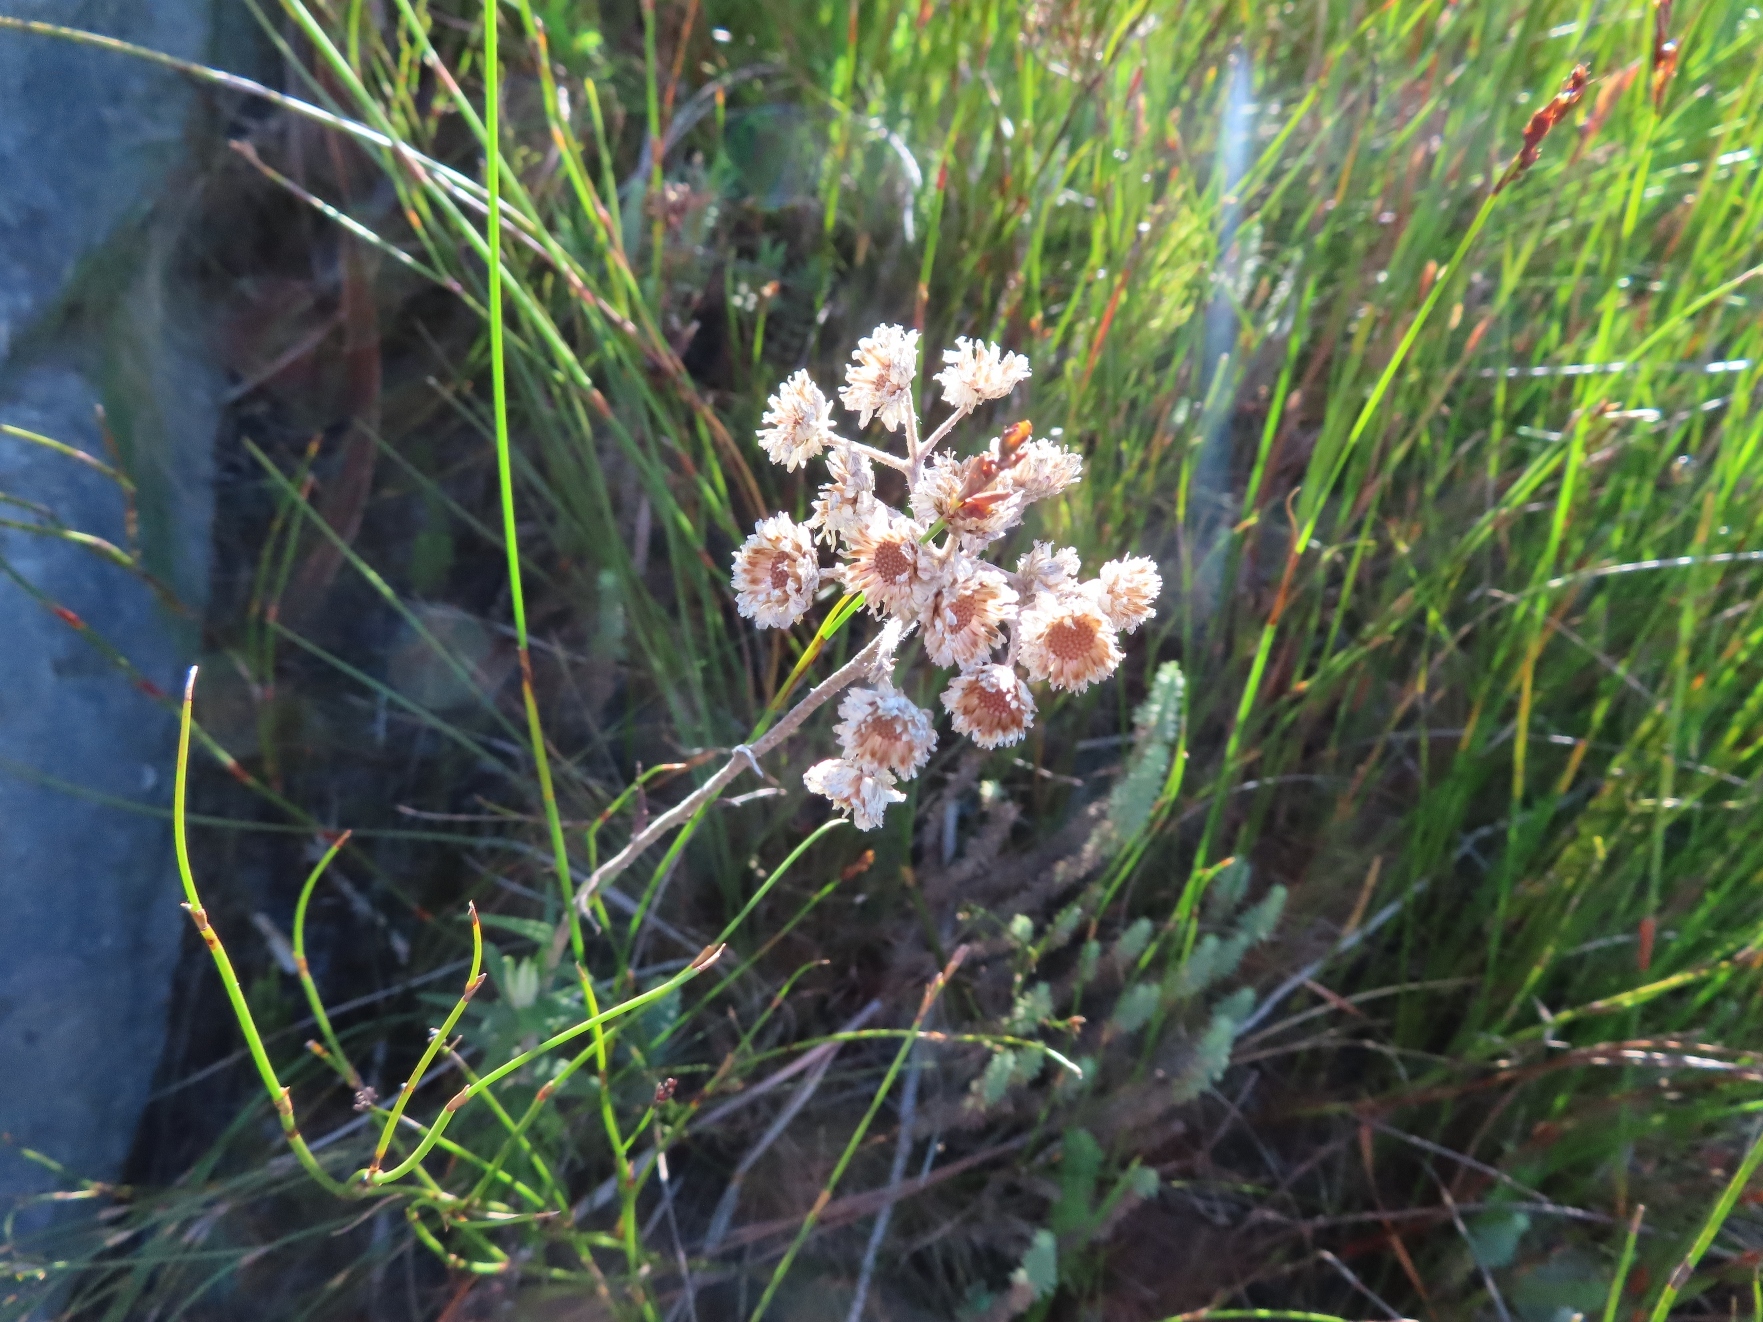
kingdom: Plantae
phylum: Tracheophyta
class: Magnoliopsida
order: Asterales
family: Asteraceae
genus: Helichrysum
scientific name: Helichrysum felinum
